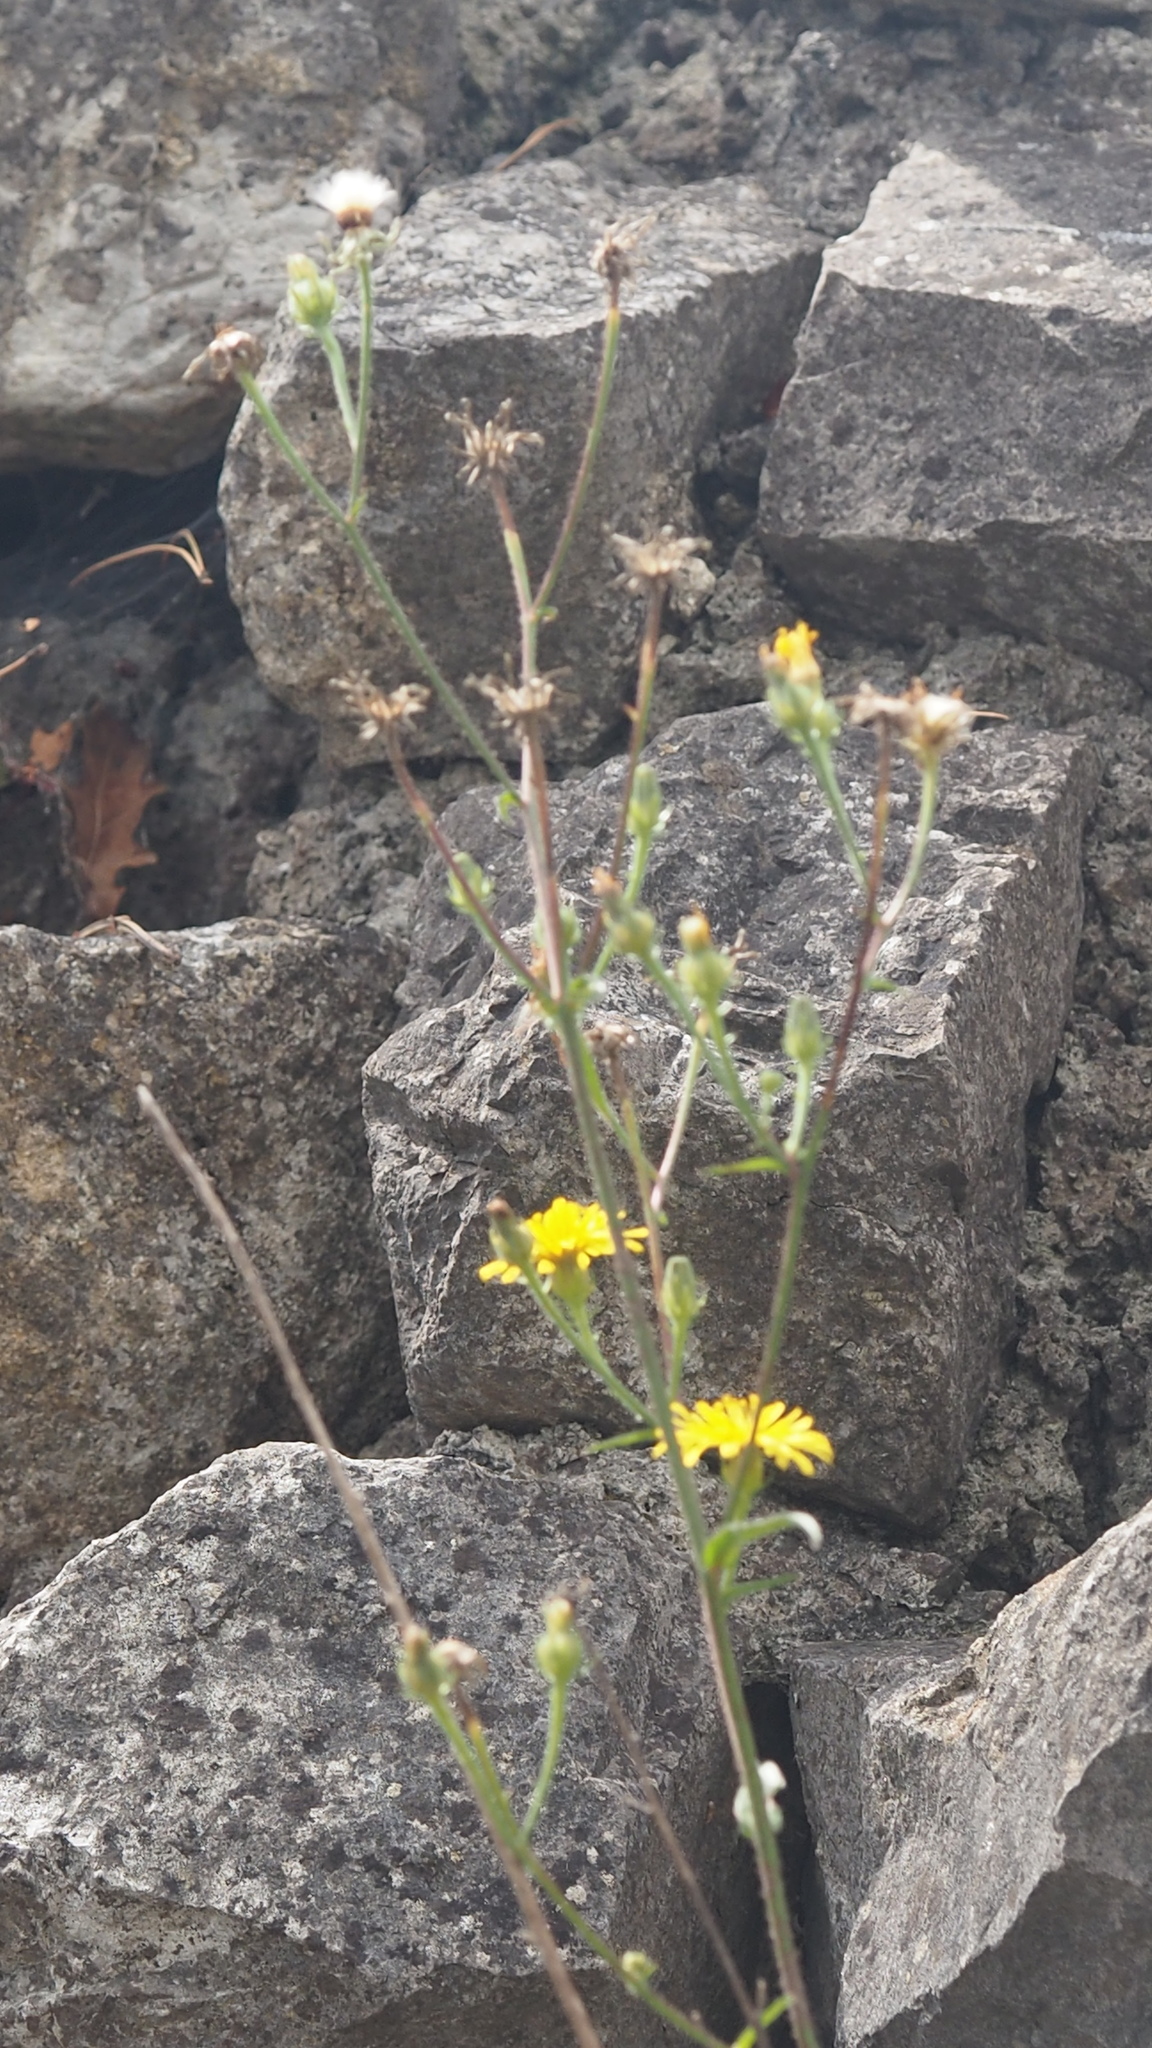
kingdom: Plantae
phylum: Tracheophyta
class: Magnoliopsida
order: Asterales
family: Asteraceae
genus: Picris
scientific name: Picris hieracioides
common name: Hawkweed oxtongue
